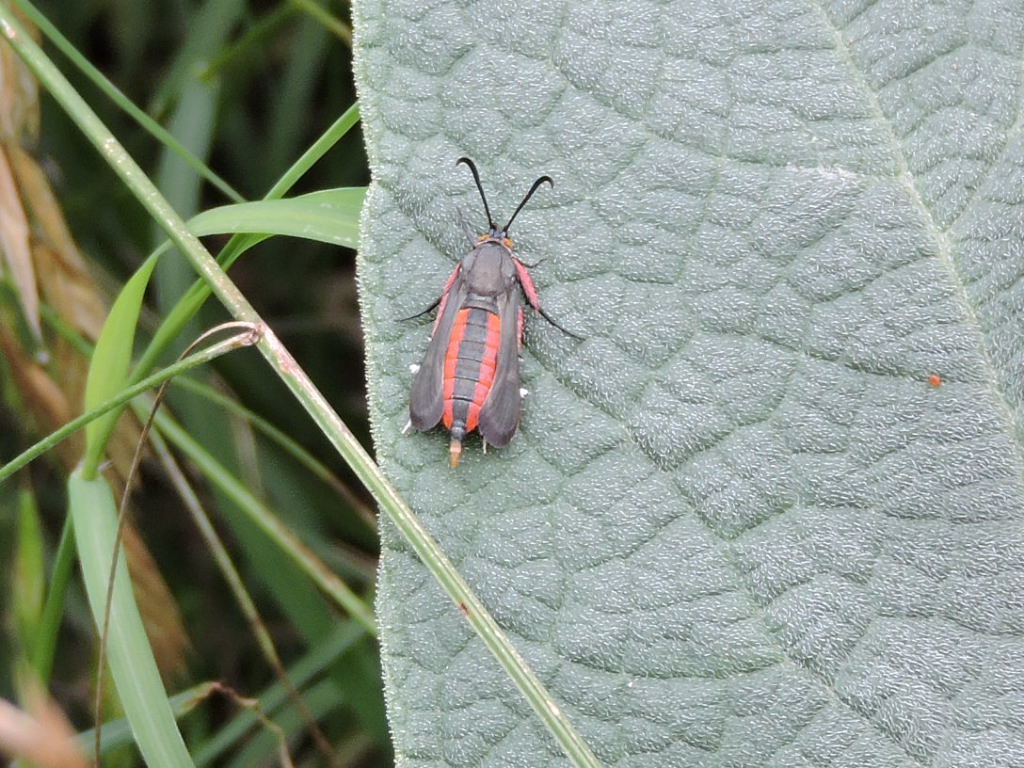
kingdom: Animalia
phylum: Arthropoda
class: Insecta
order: Lepidoptera
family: Sesiidae
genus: Eichlinia
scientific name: Eichlinia snowii
